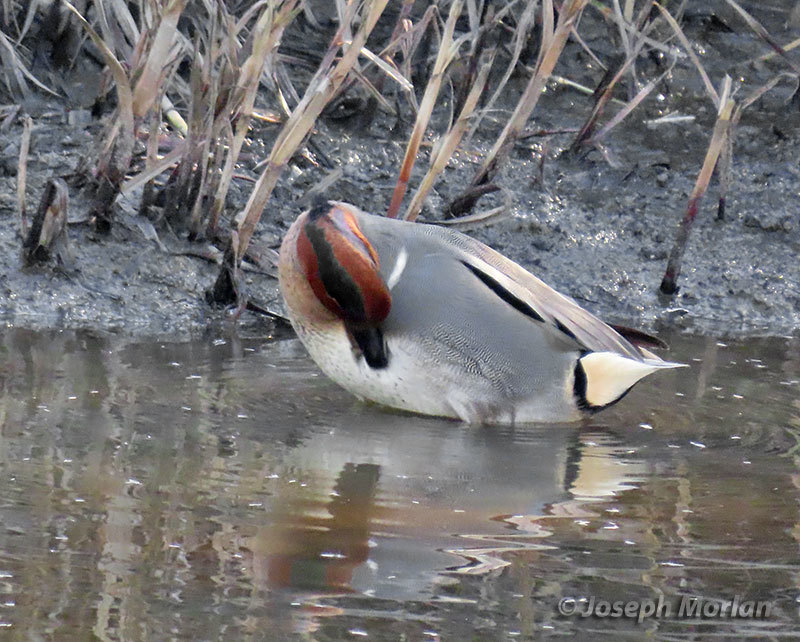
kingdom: Animalia
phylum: Chordata
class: Aves
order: Anseriformes
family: Anatidae
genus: Anas
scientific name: Anas
